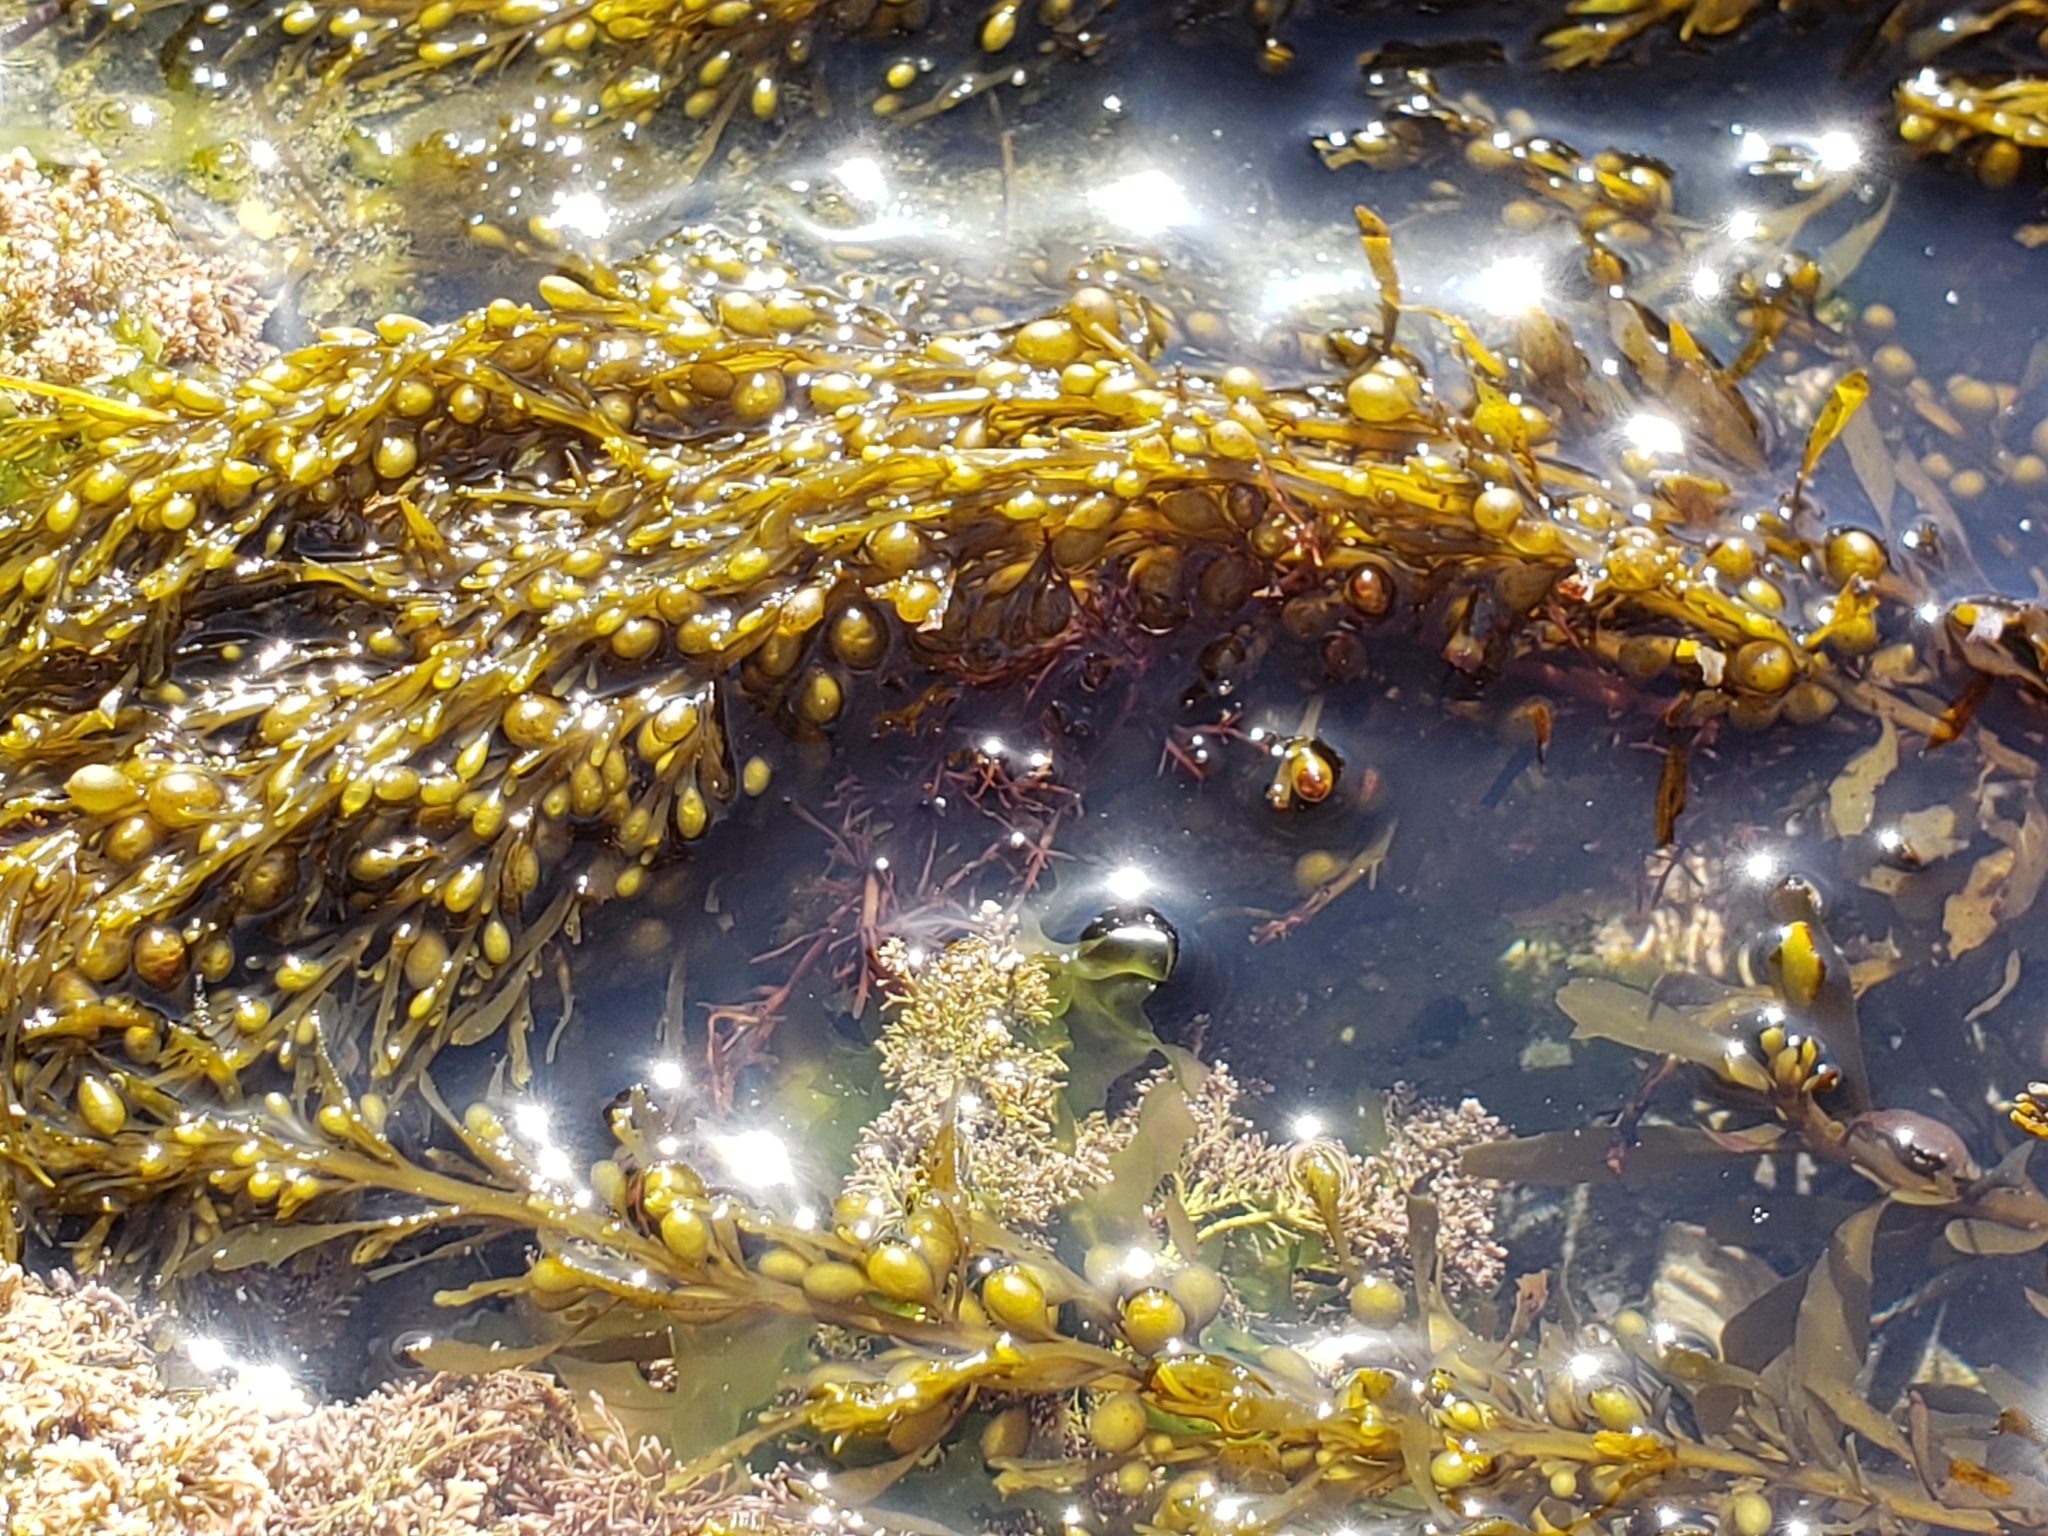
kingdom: Chromista
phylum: Ochrophyta
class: Phaeophyceae
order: Fucales
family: Sargassaceae
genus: Sargassum
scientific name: Sargassum muticum
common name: Japweed
